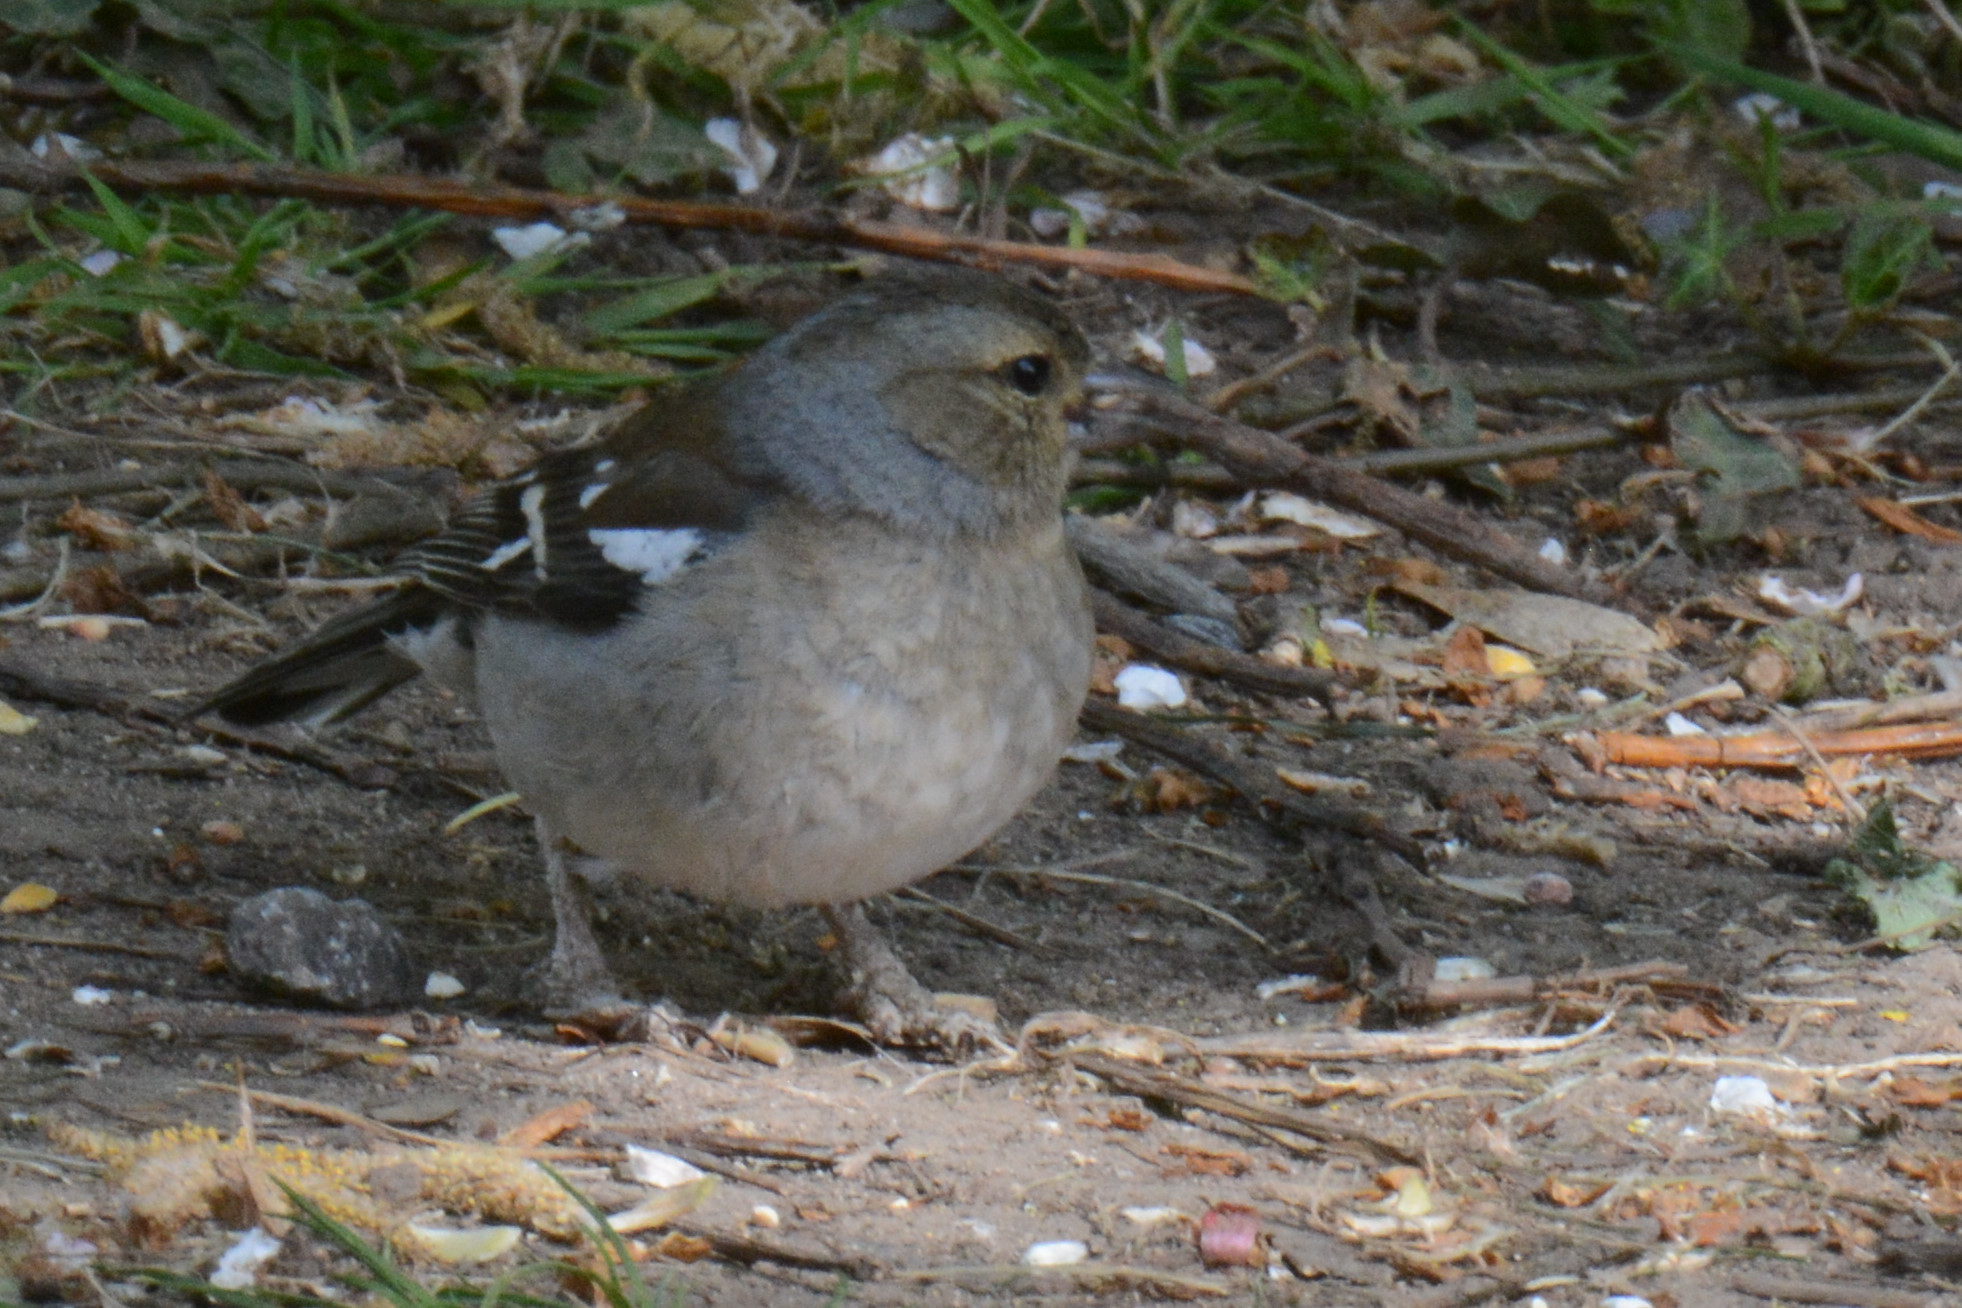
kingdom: Animalia
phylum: Chordata
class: Aves
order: Passeriformes
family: Fringillidae
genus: Fringilla
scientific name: Fringilla coelebs
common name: Common chaffinch
